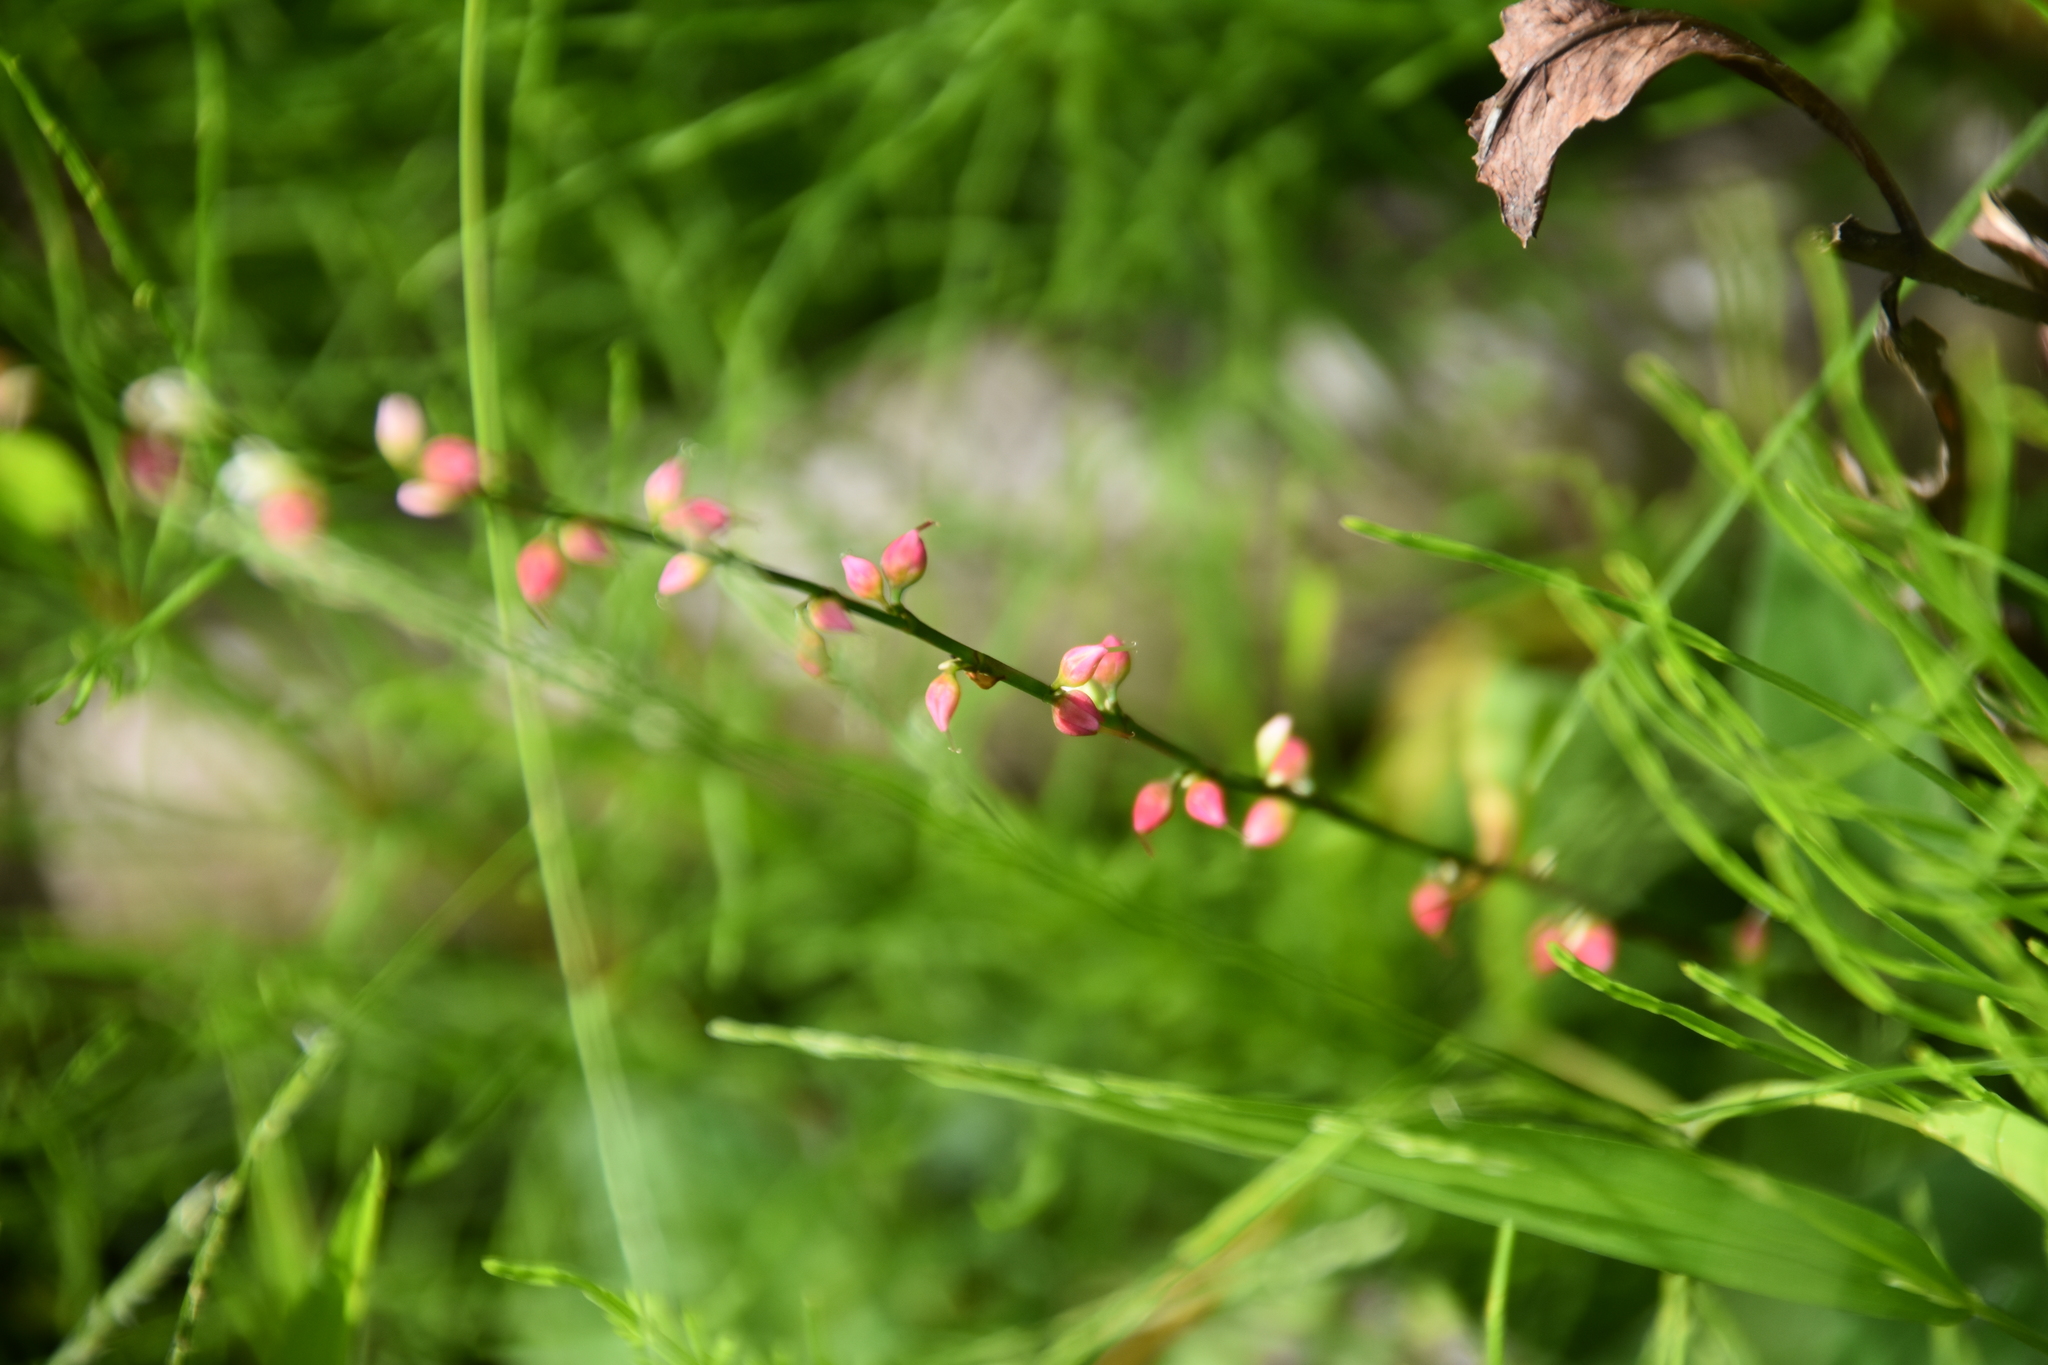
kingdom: Plantae
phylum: Tracheophyta
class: Magnoliopsida
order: Caryophyllales
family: Polygonaceae
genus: Persicaria
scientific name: Persicaria virginiana
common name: Jumpseed
